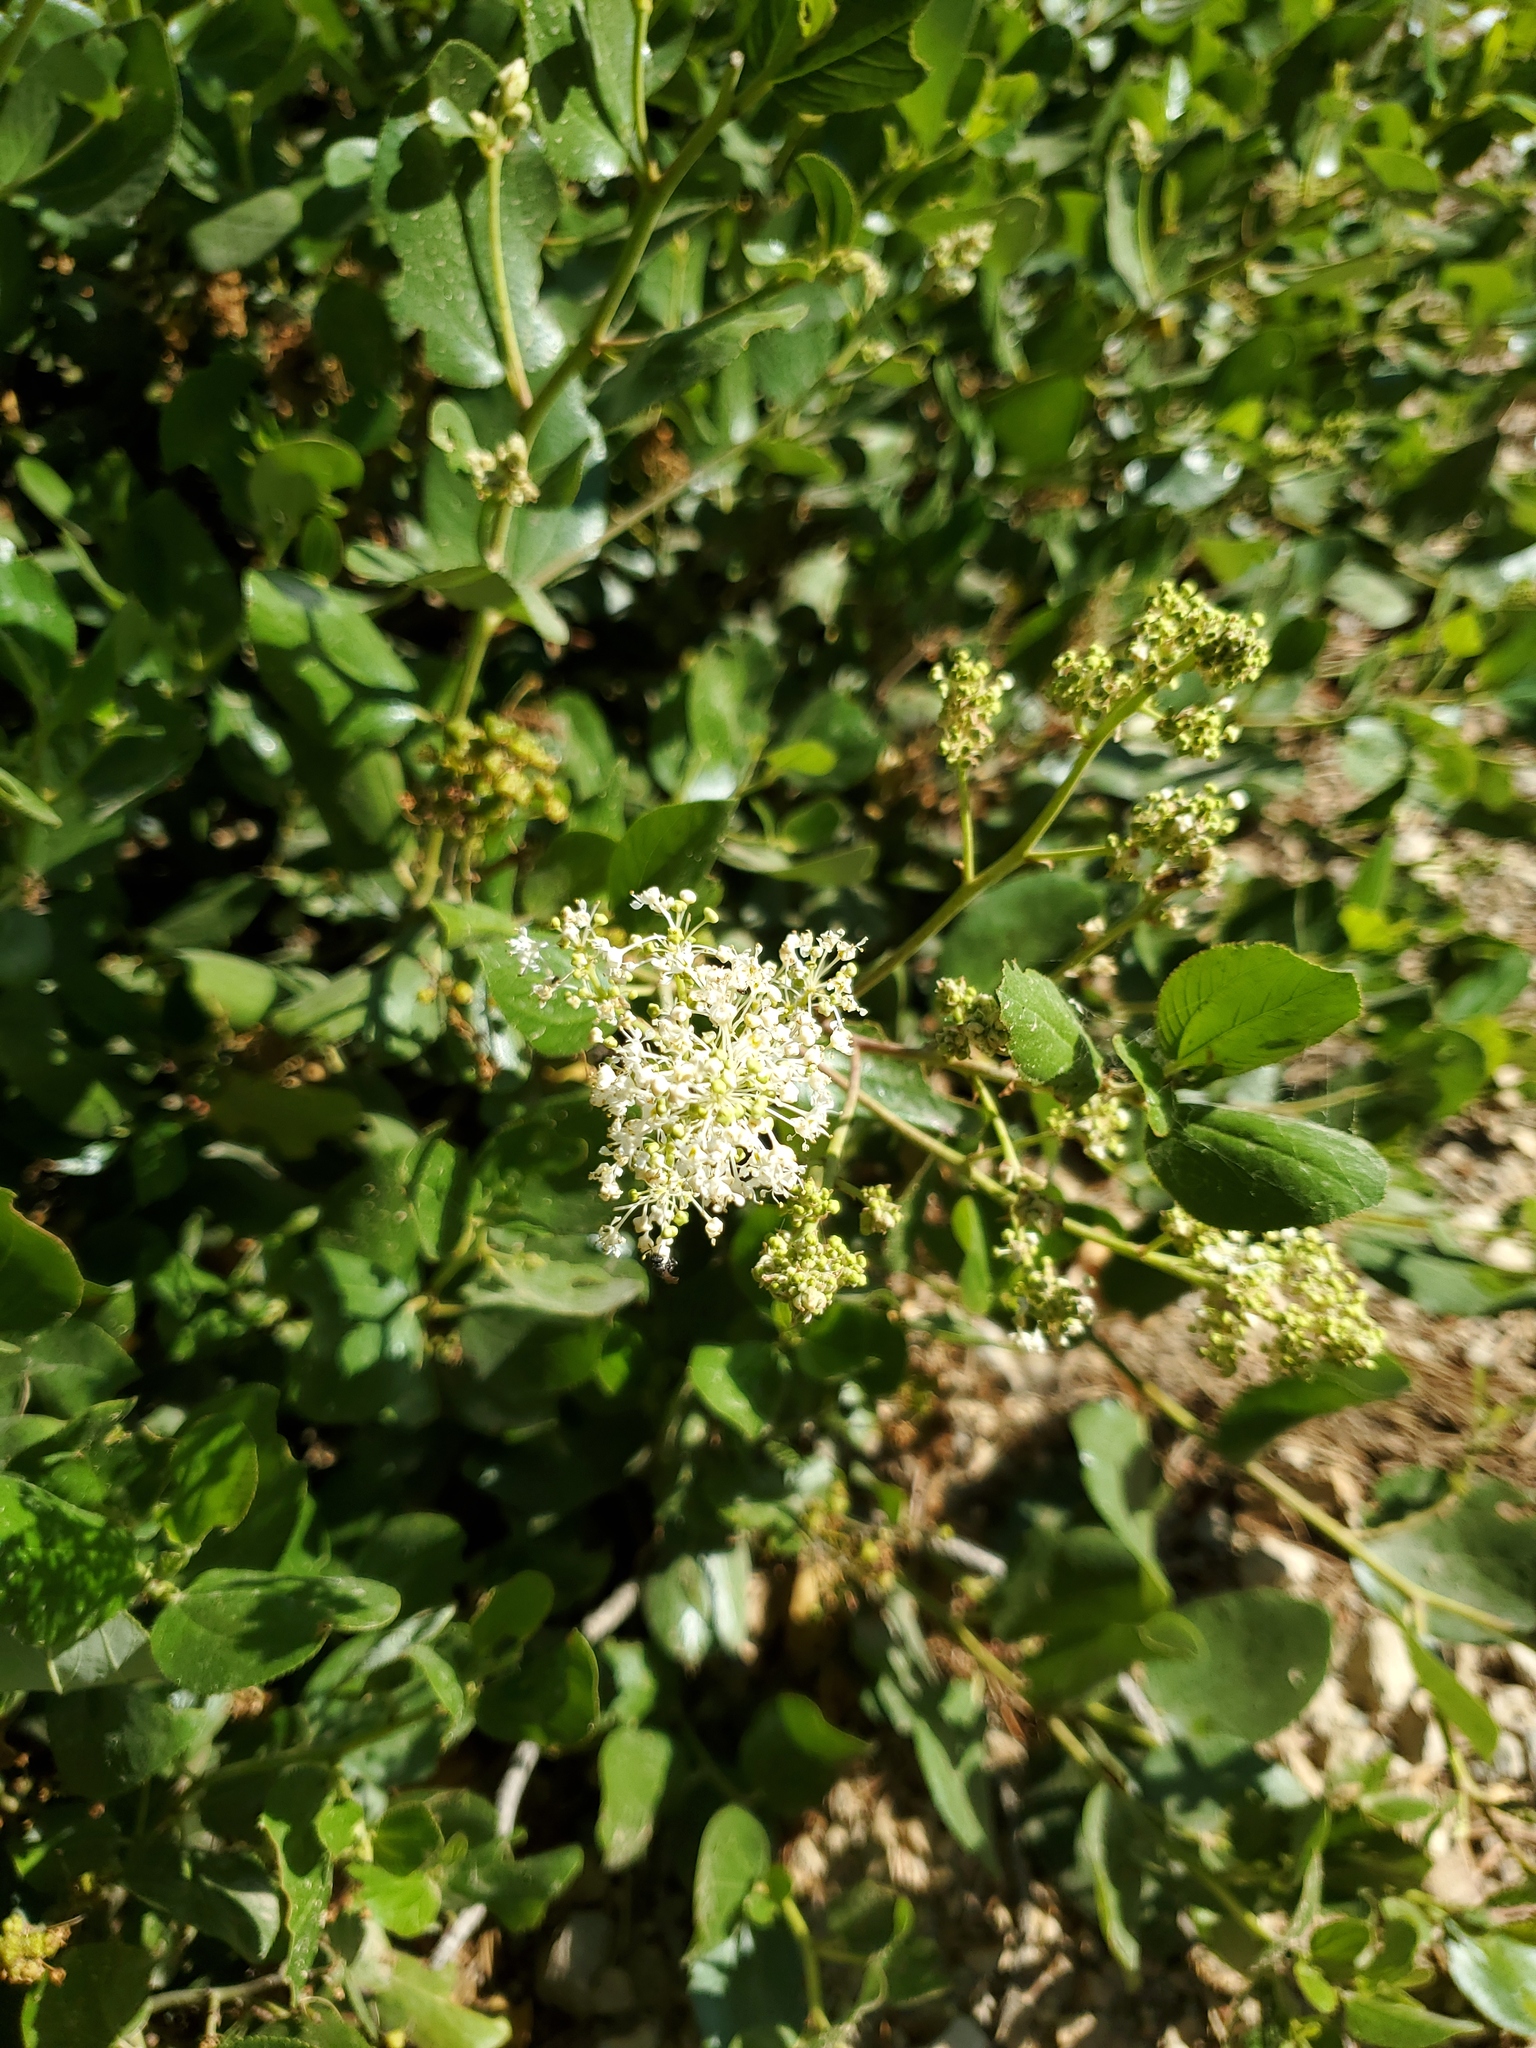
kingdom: Plantae
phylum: Tracheophyta
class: Magnoliopsida
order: Rosales
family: Rhamnaceae
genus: Ceanothus
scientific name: Ceanothus velutinus
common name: Snowbrush
